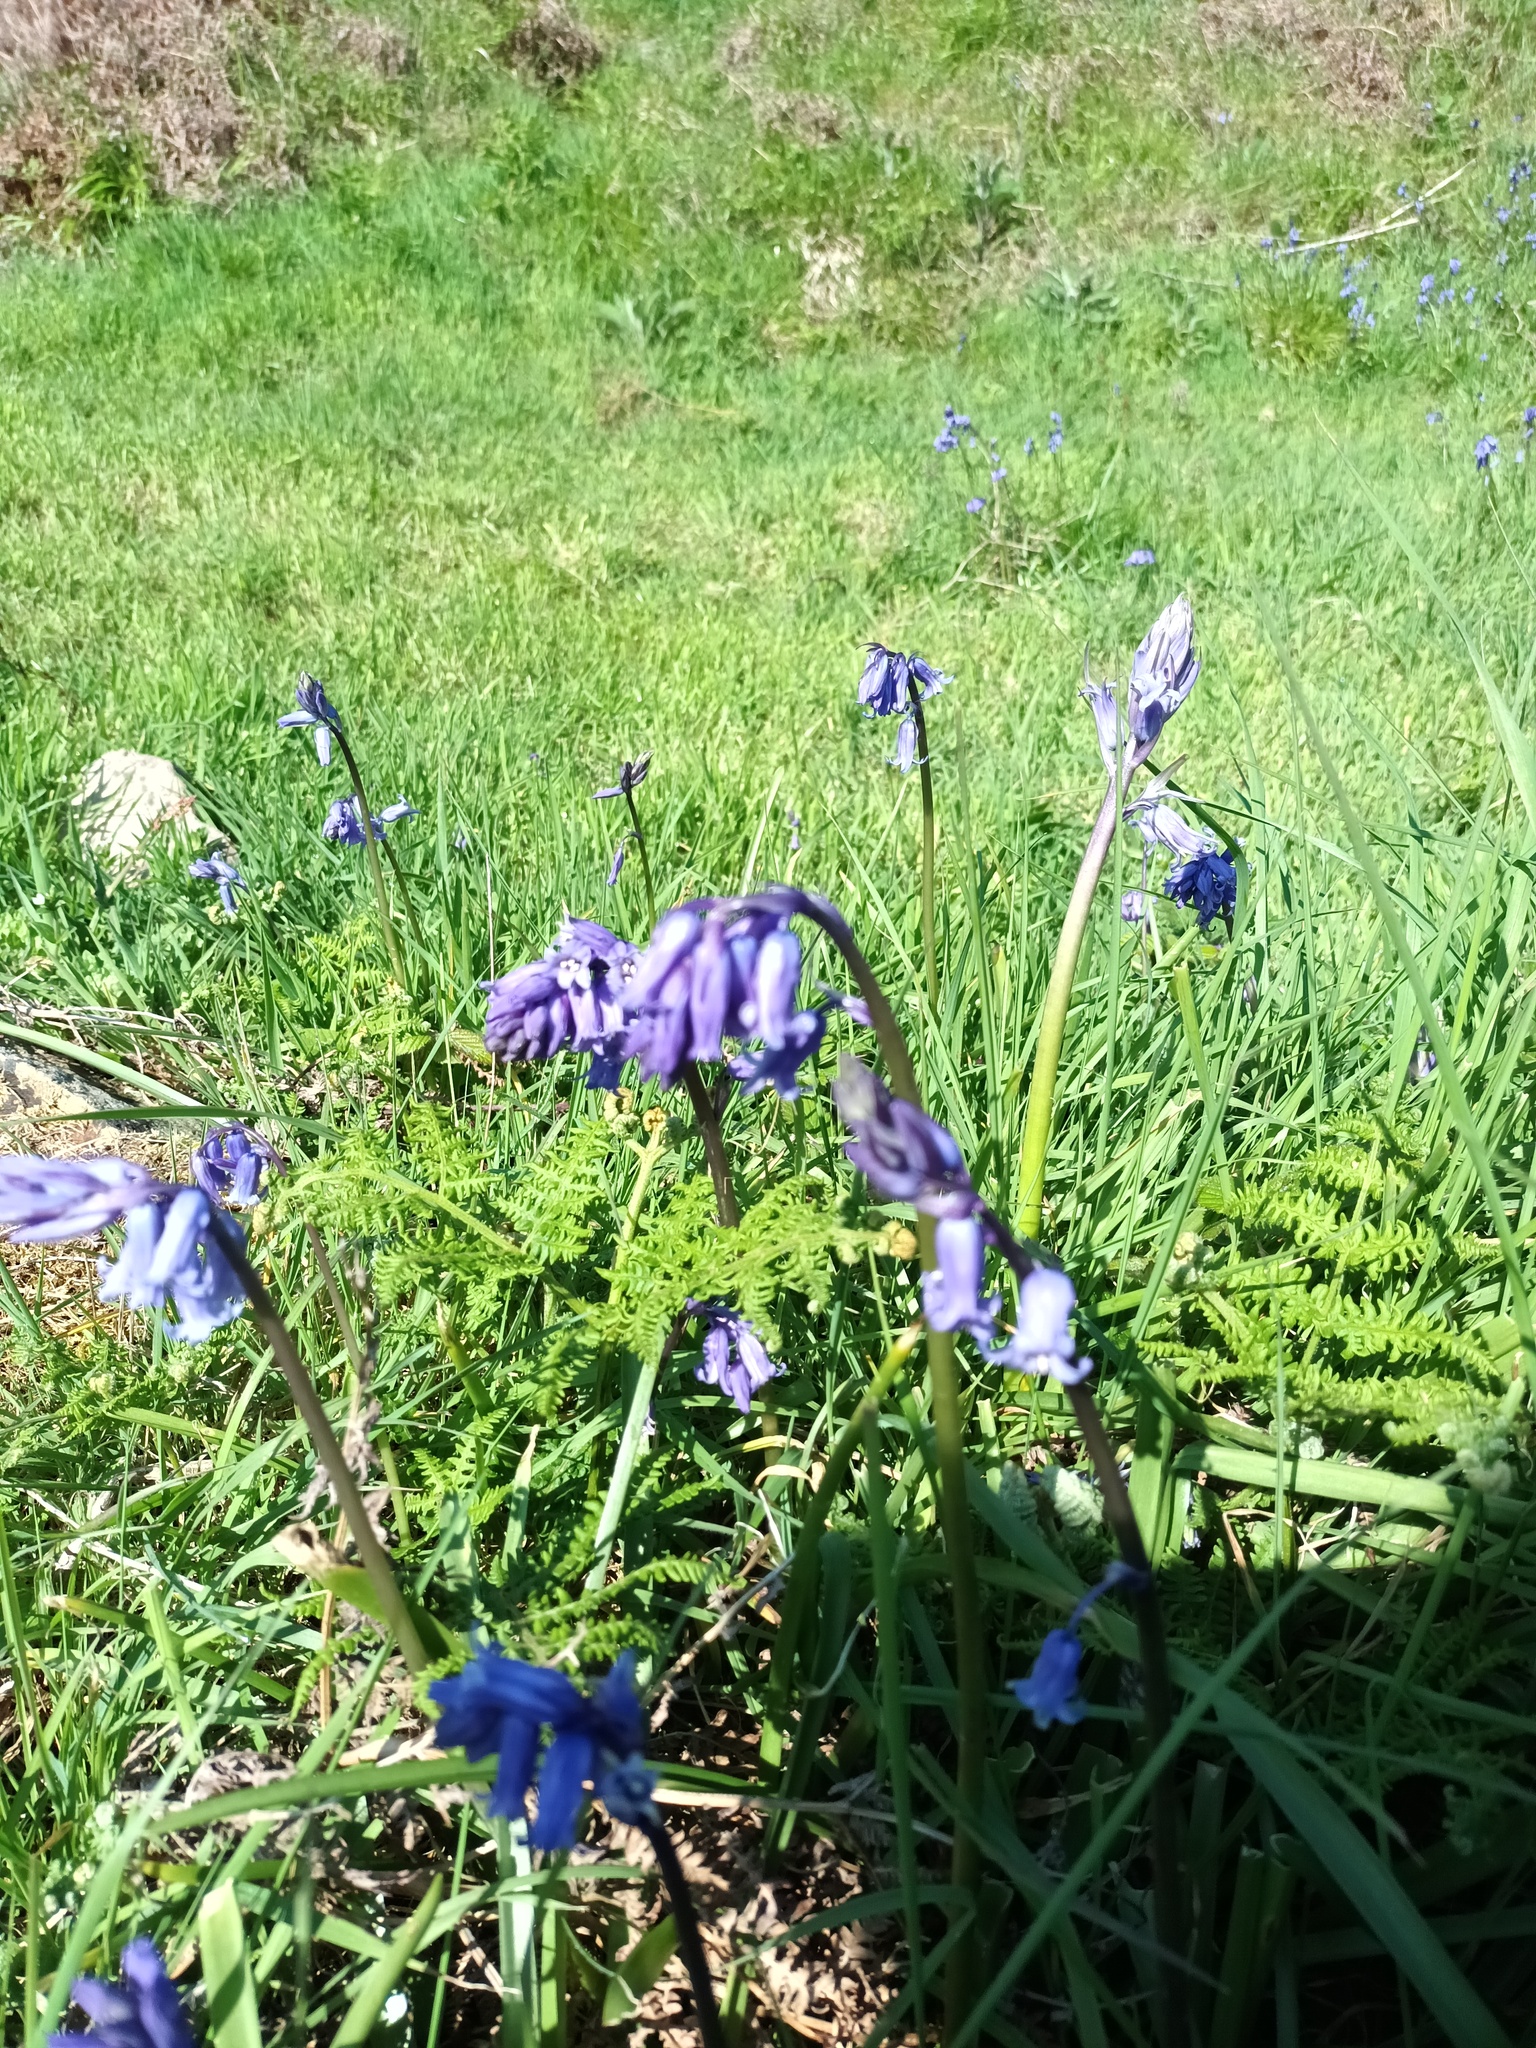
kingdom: Plantae
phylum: Tracheophyta
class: Liliopsida
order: Asparagales
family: Asparagaceae
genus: Hyacinthoides
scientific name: Hyacinthoides non-scripta
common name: Bluebell
